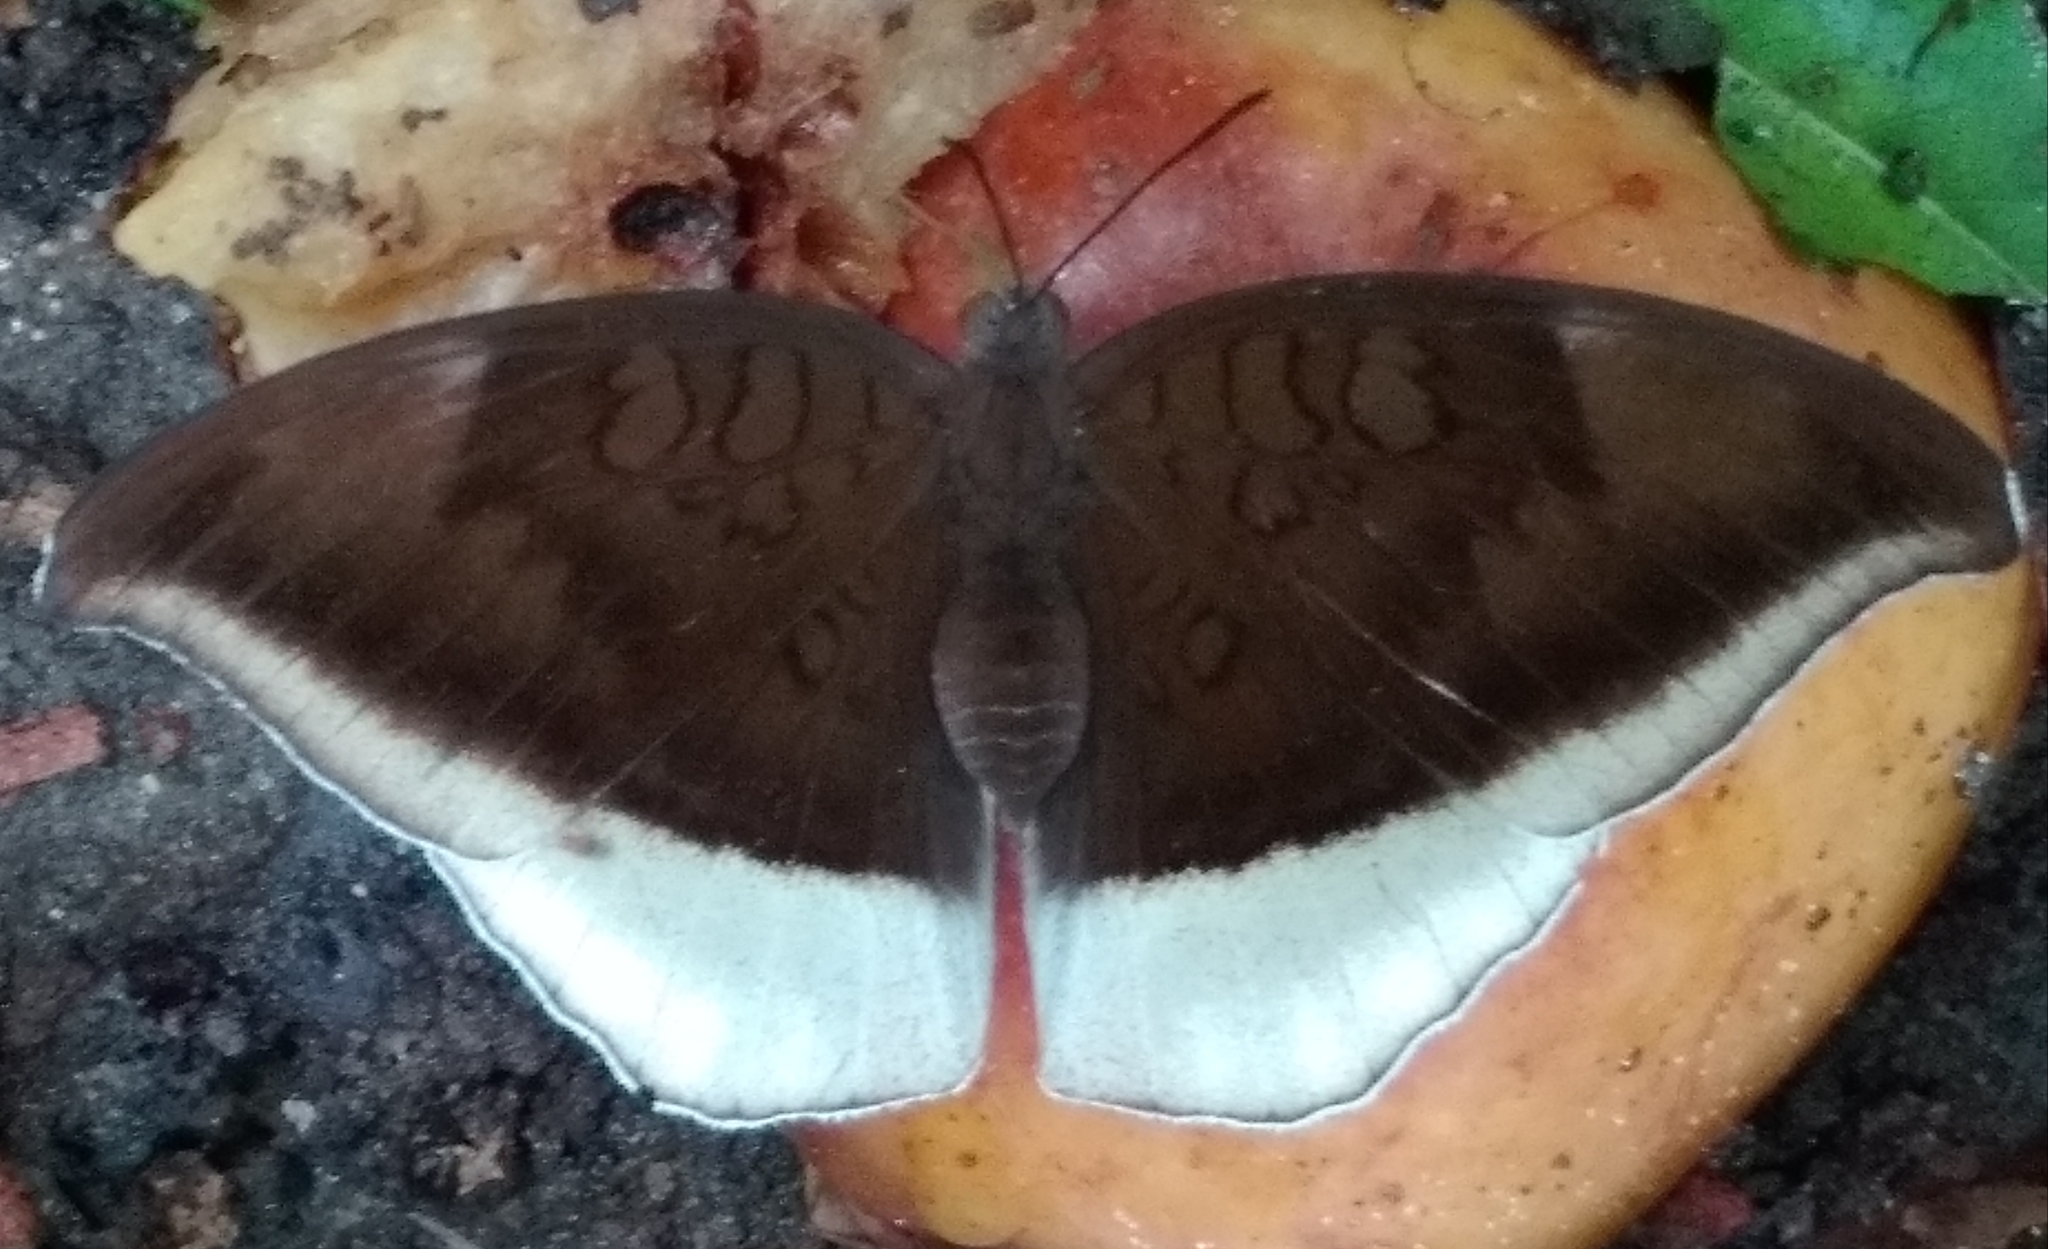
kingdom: Animalia
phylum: Arthropoda
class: Insecta
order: Lepidoptera
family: Nymphalidae
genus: Tanaecia
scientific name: Tanaecia lepidea
